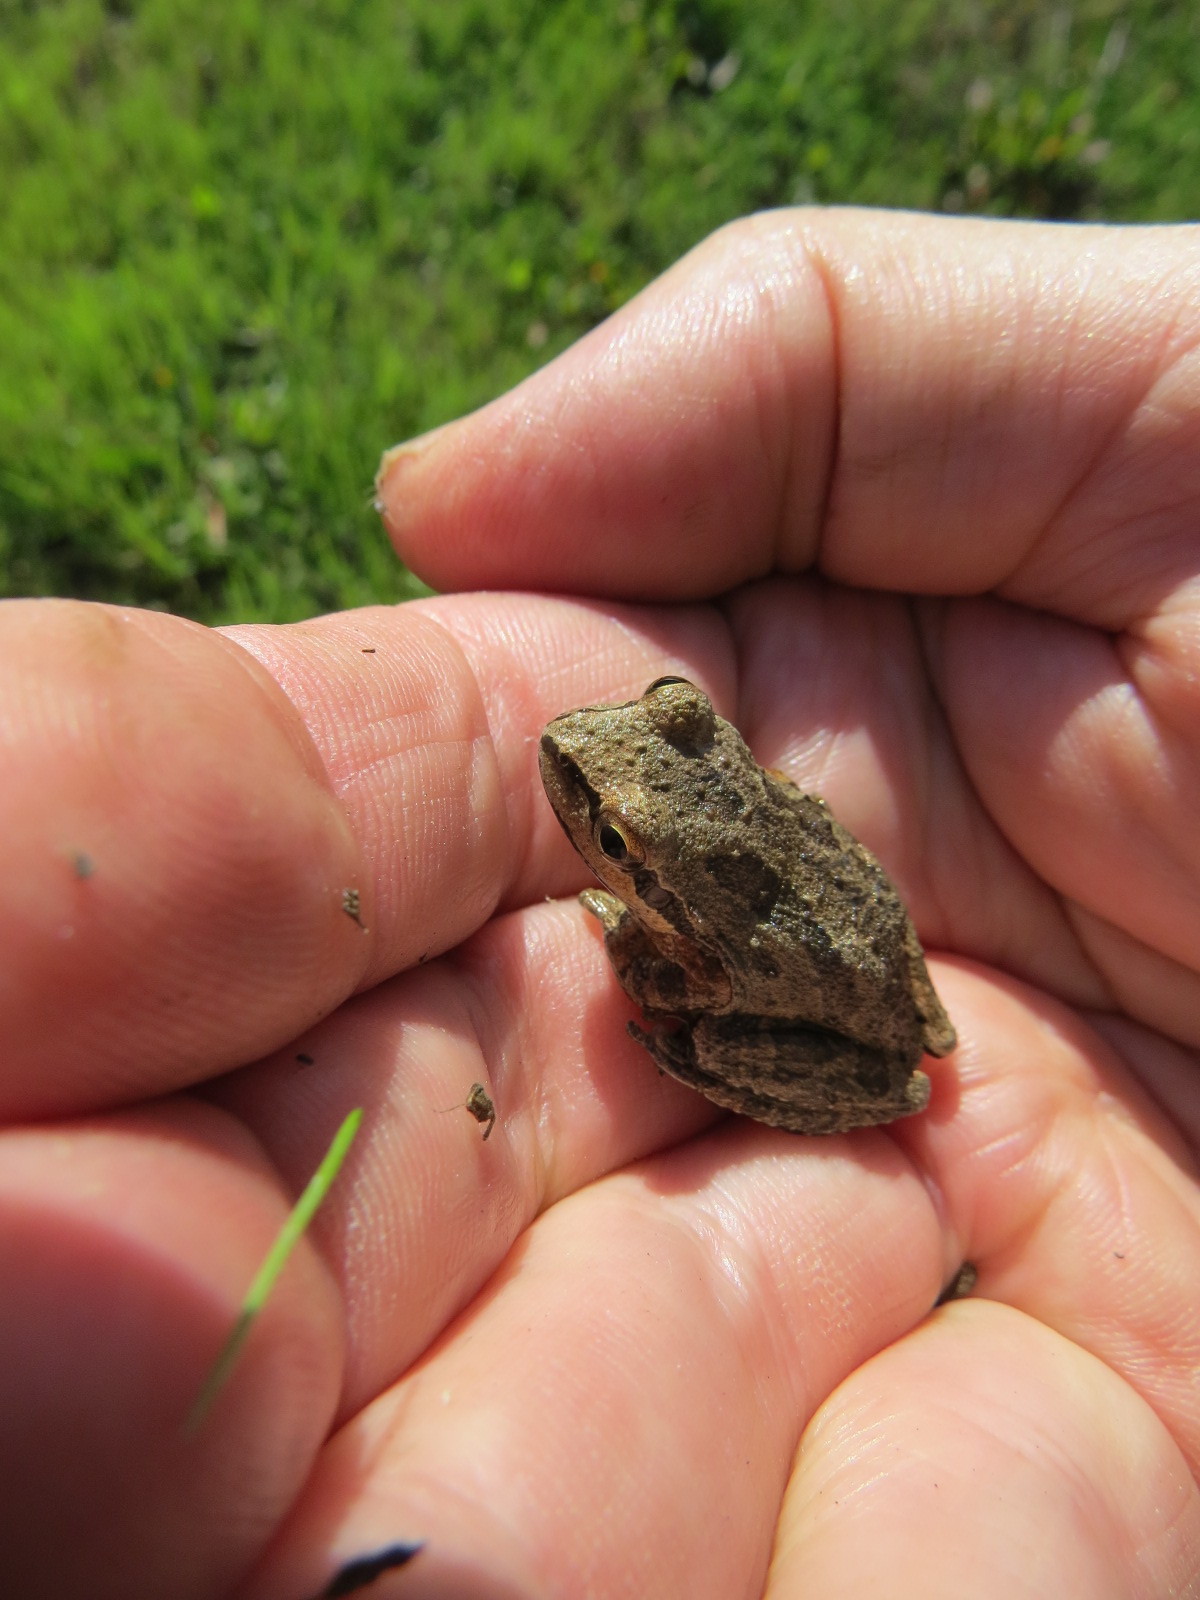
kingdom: Animalia
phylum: Chordata
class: Amphibia
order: Anura
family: Hylidae
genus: Pseudacris
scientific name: Pseudacris regilla
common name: Pacific chorus frog
